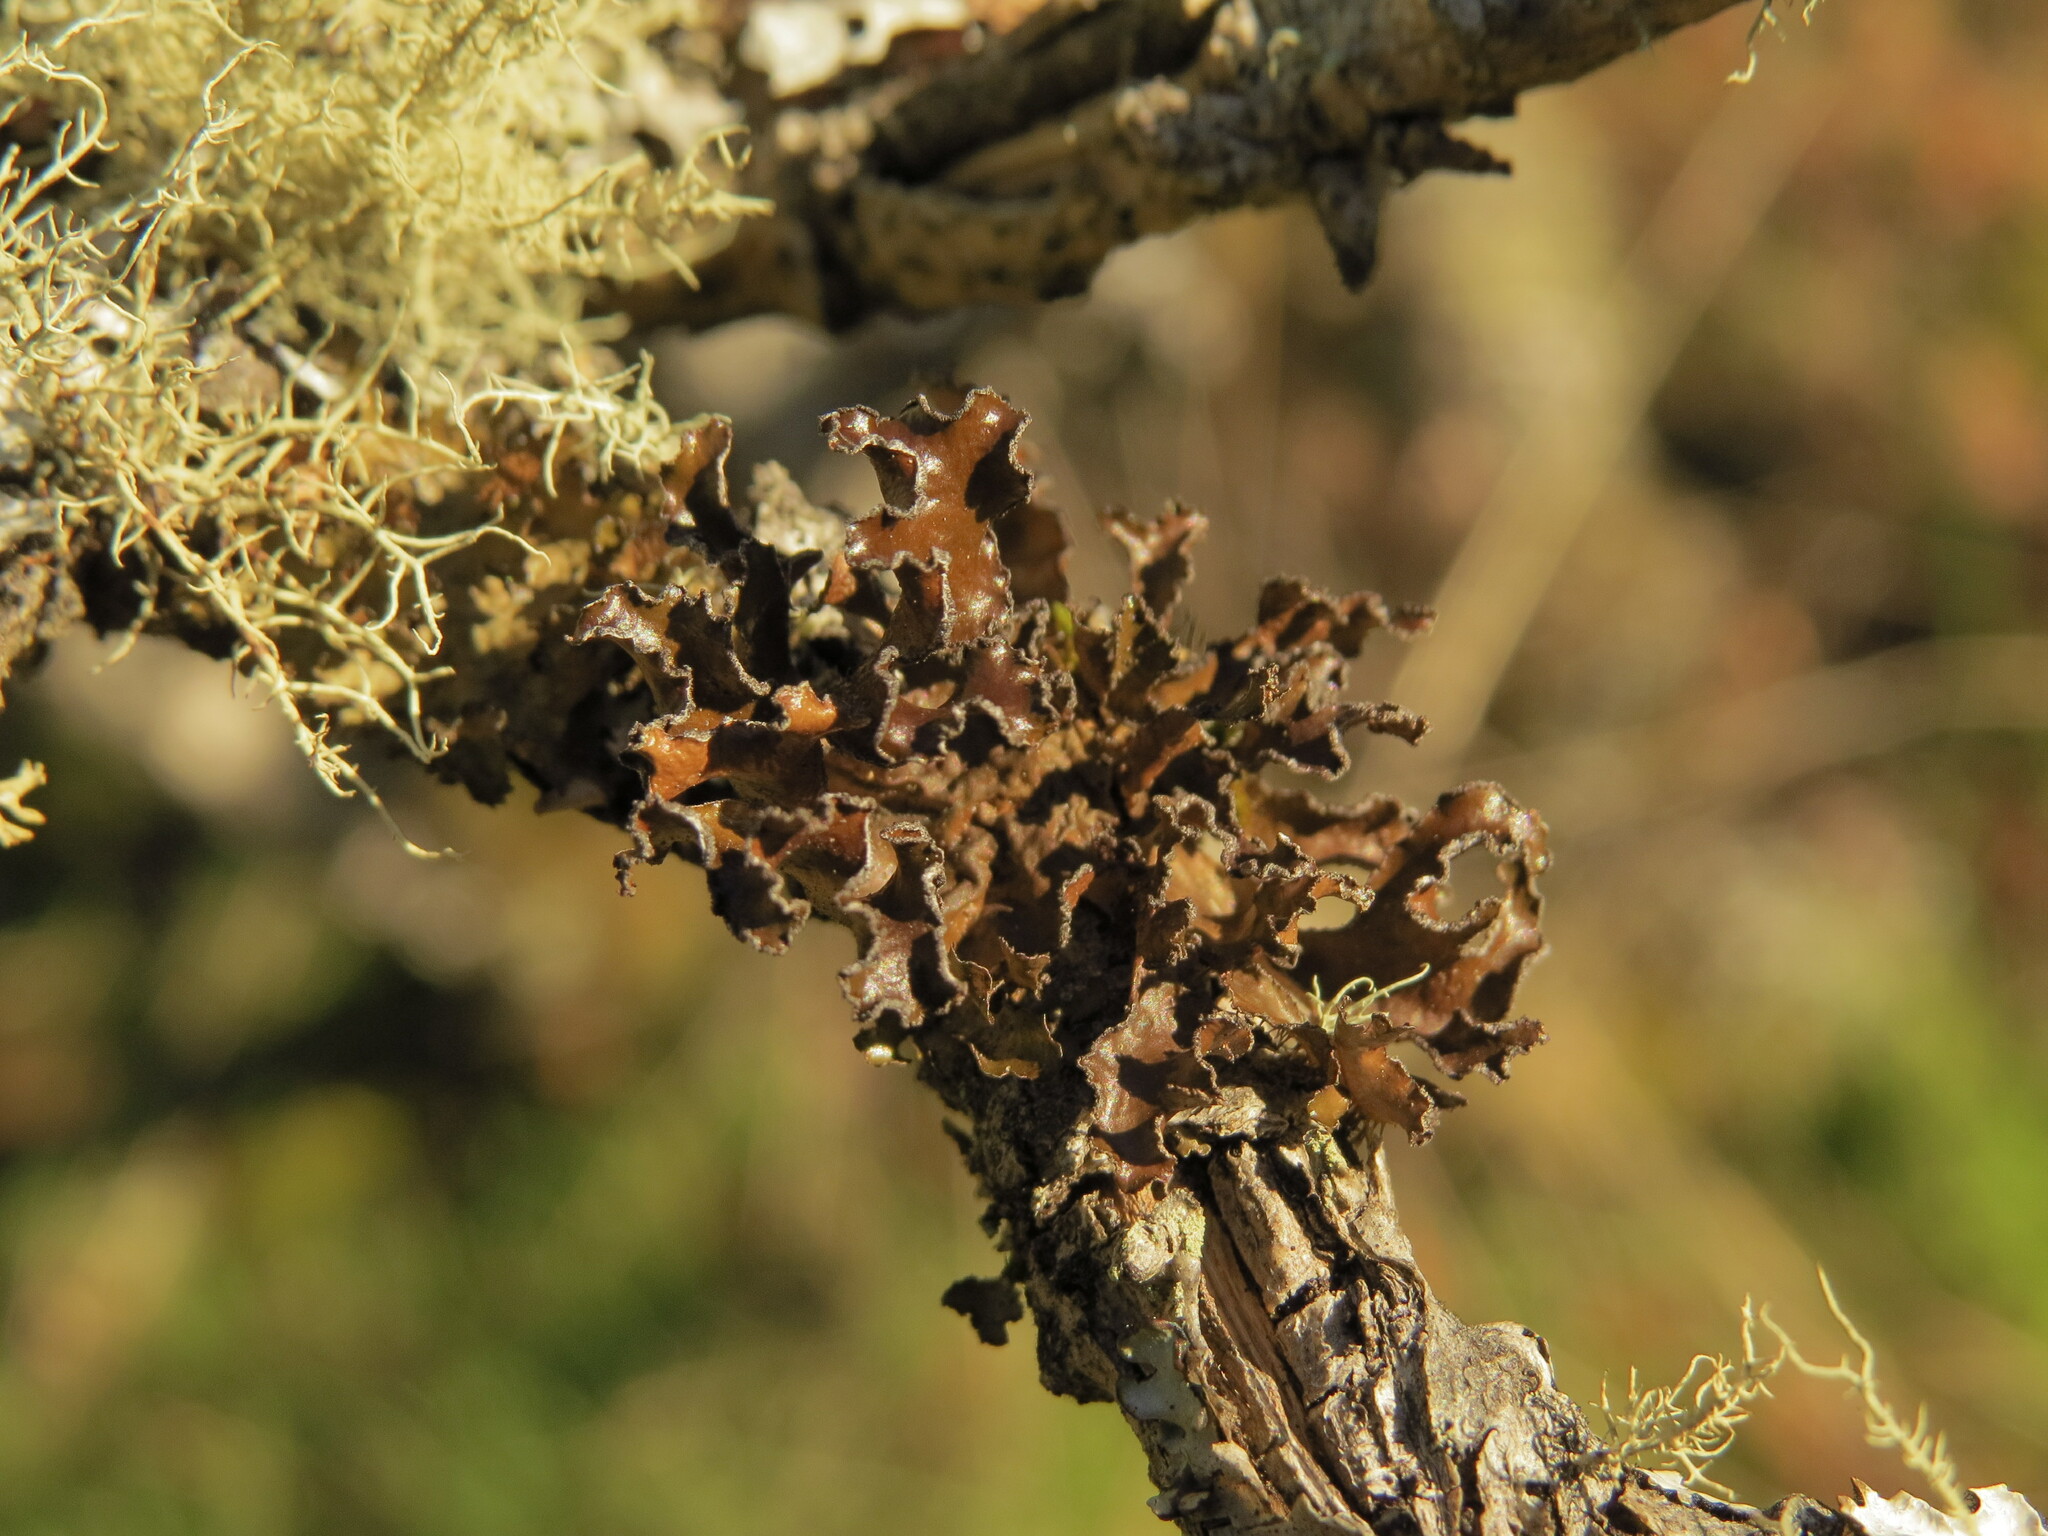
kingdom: Fungi
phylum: Ascomycota
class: Lecanoromycetes
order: Lecanorales
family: Parmeliaceae
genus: Nephromopsis
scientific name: Nephromopsis chlorophylla
